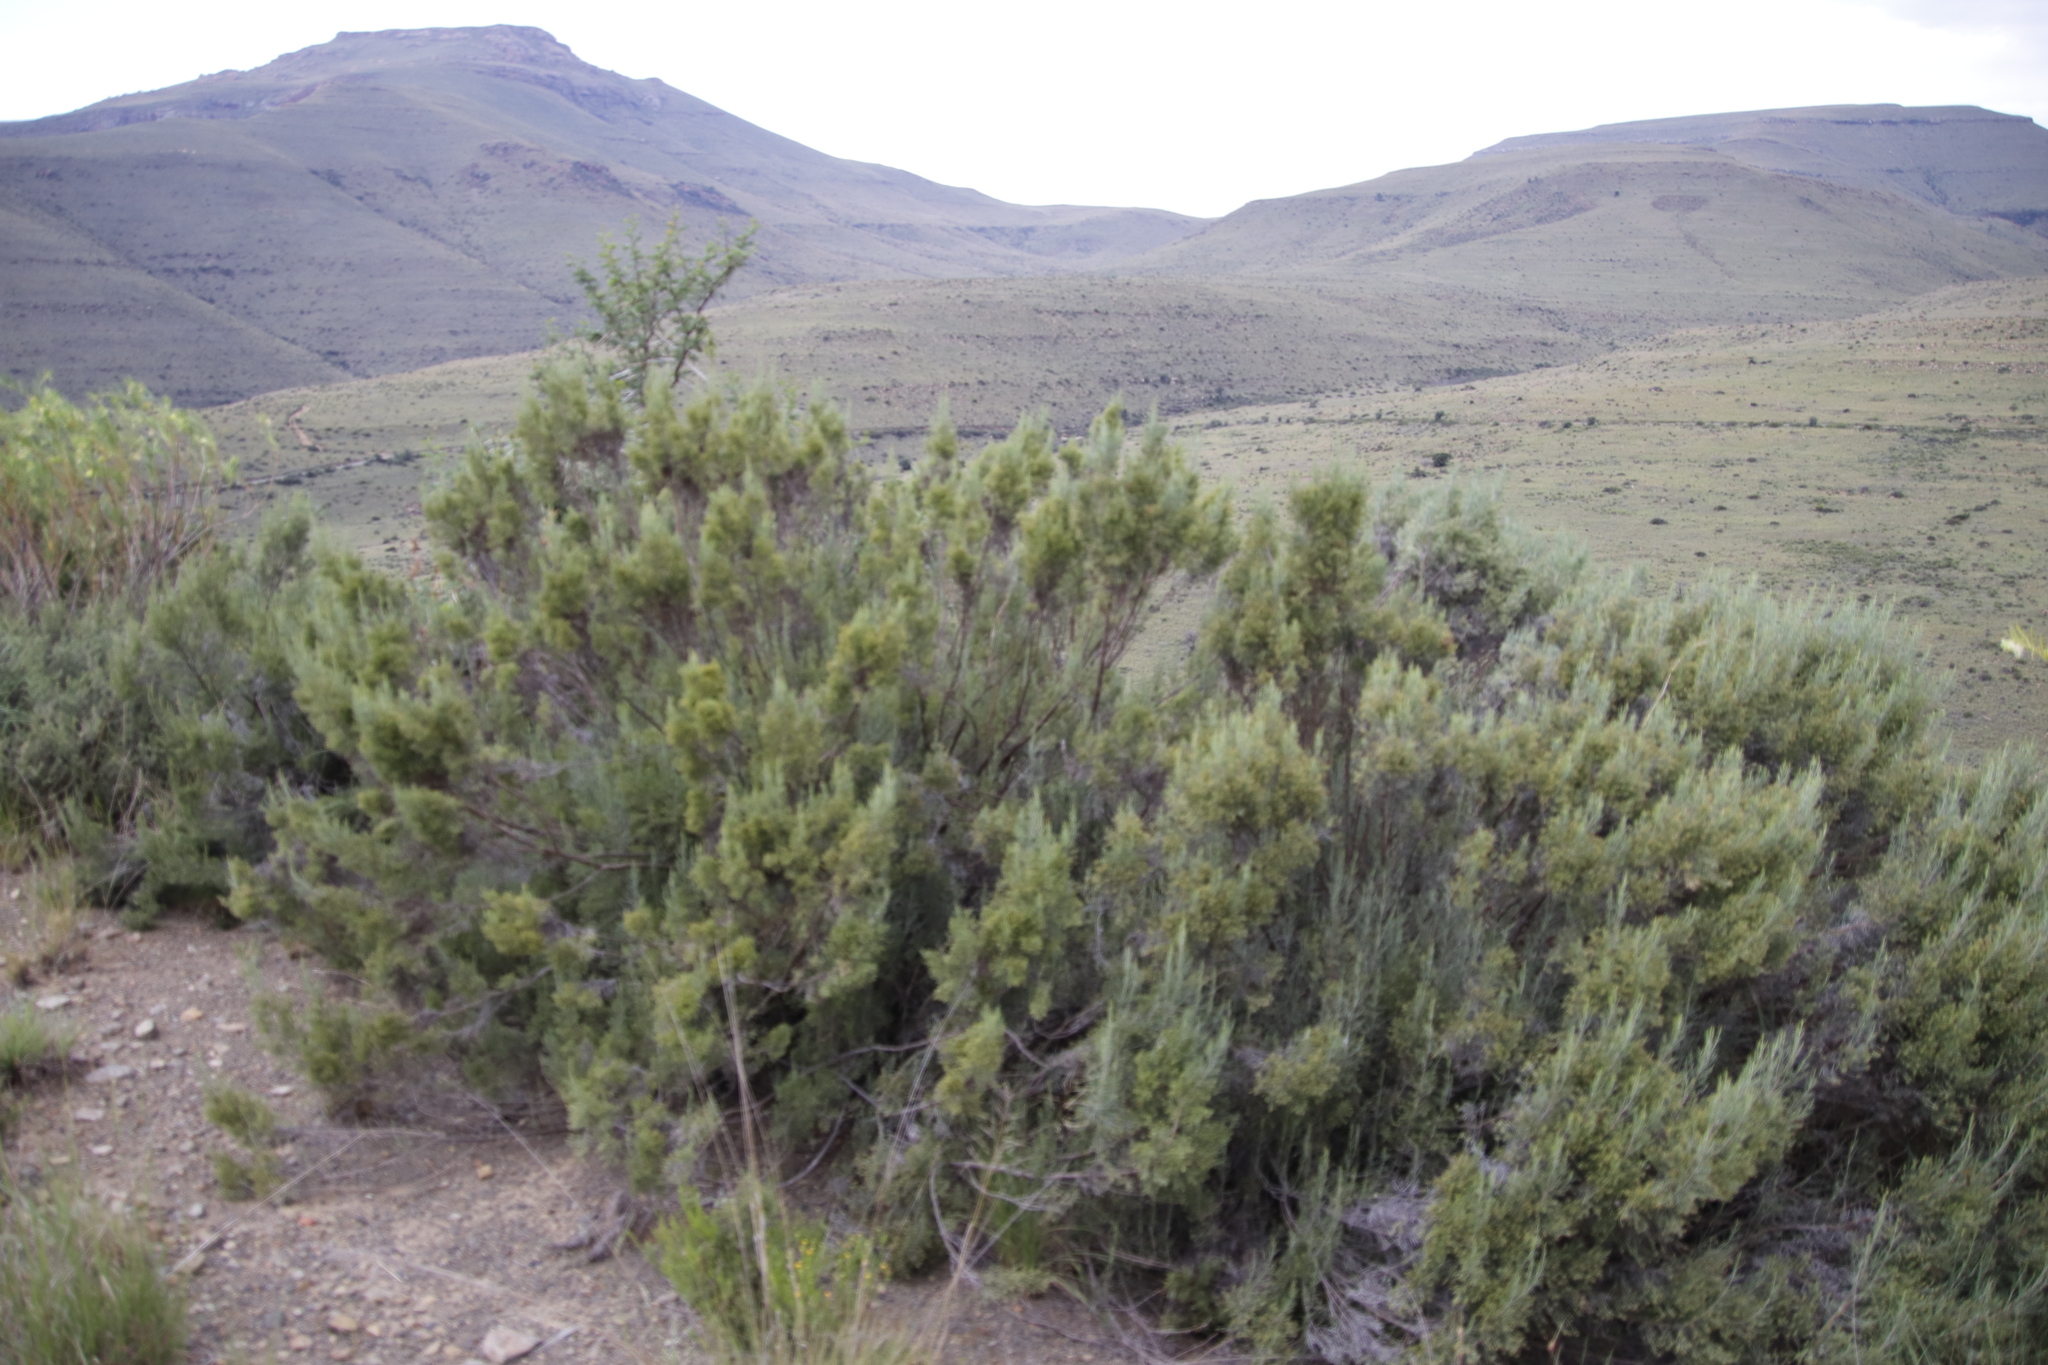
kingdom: Plantae
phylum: Tracheophyta
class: Magnoliopsida
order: Asterales
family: Asteraceae
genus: Dicerothamnus
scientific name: Dicerothamnus rhinocerotis
